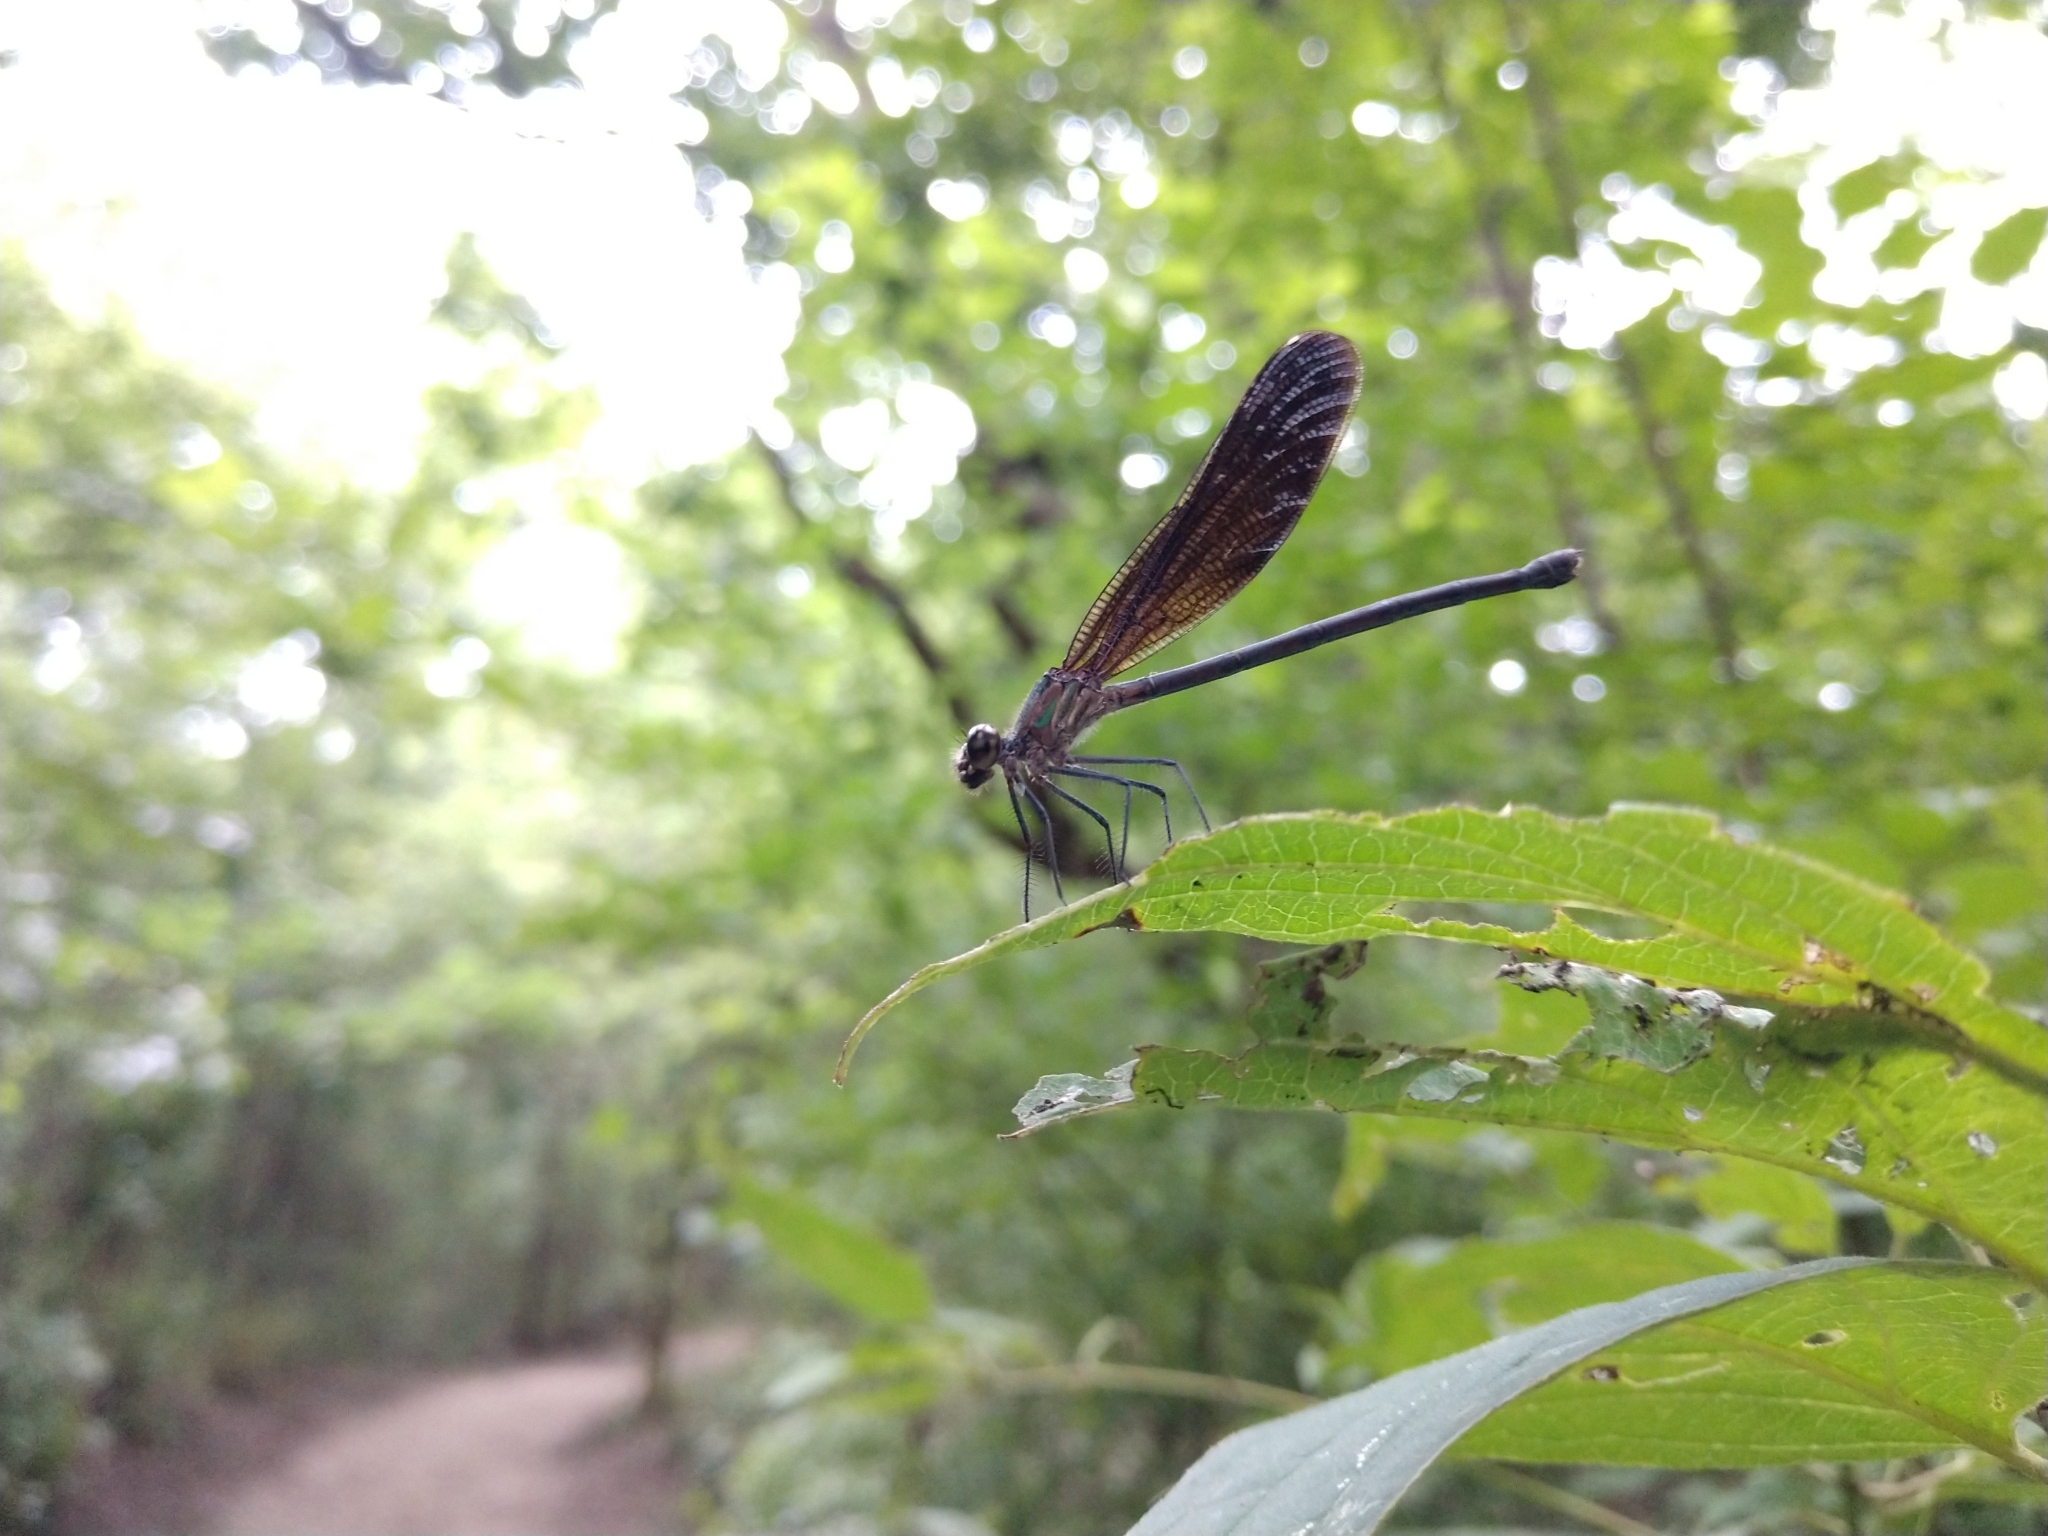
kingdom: Animalia
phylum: Arthropoda
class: Insecta
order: Odonata
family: Calopterygidae
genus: Hetaerina
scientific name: Hetaerina titia
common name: Smoky rubyspot
